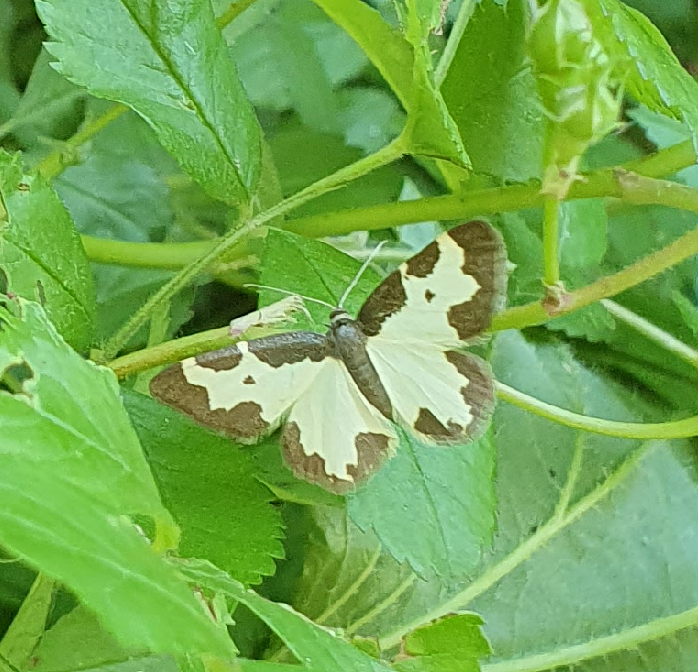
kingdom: Animalia
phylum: Arthropoda
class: Insecta
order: Lepidoptera
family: Geometridae
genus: Lomaspilis
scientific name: Lomaspilis marginata
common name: Clouded border
